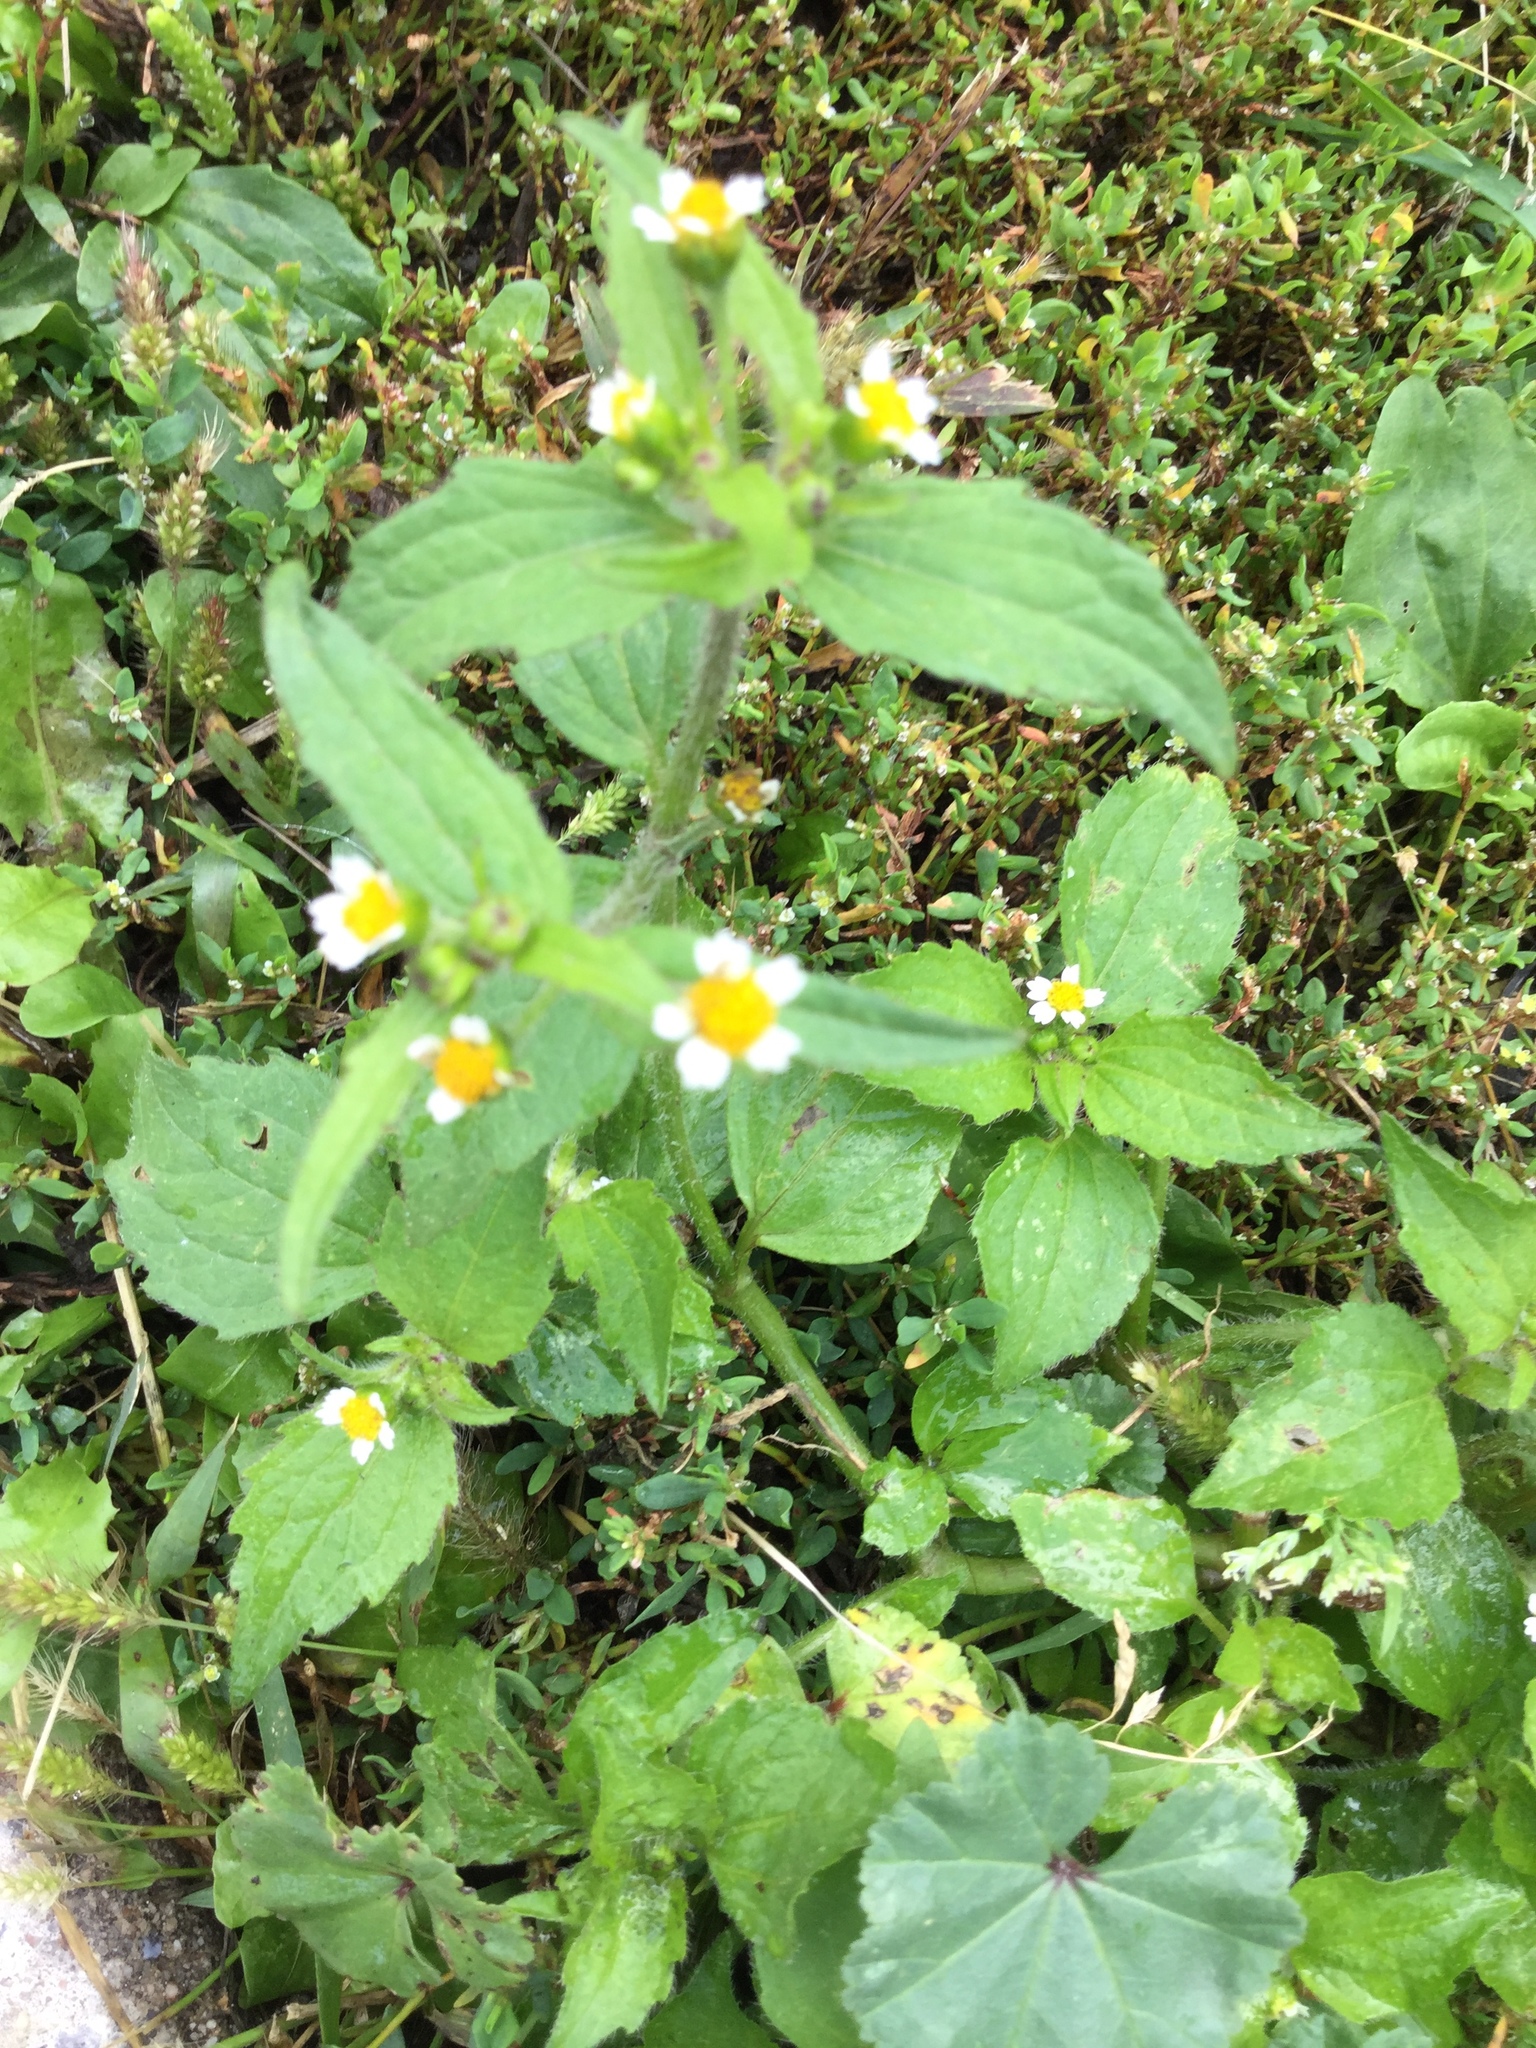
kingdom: Plantae
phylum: Tracheophyta
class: Magnoliopsida
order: Asterales
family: Asteraceae
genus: Galinsoga
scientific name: Galinsoga quadriradiata
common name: Shaggy soldier
